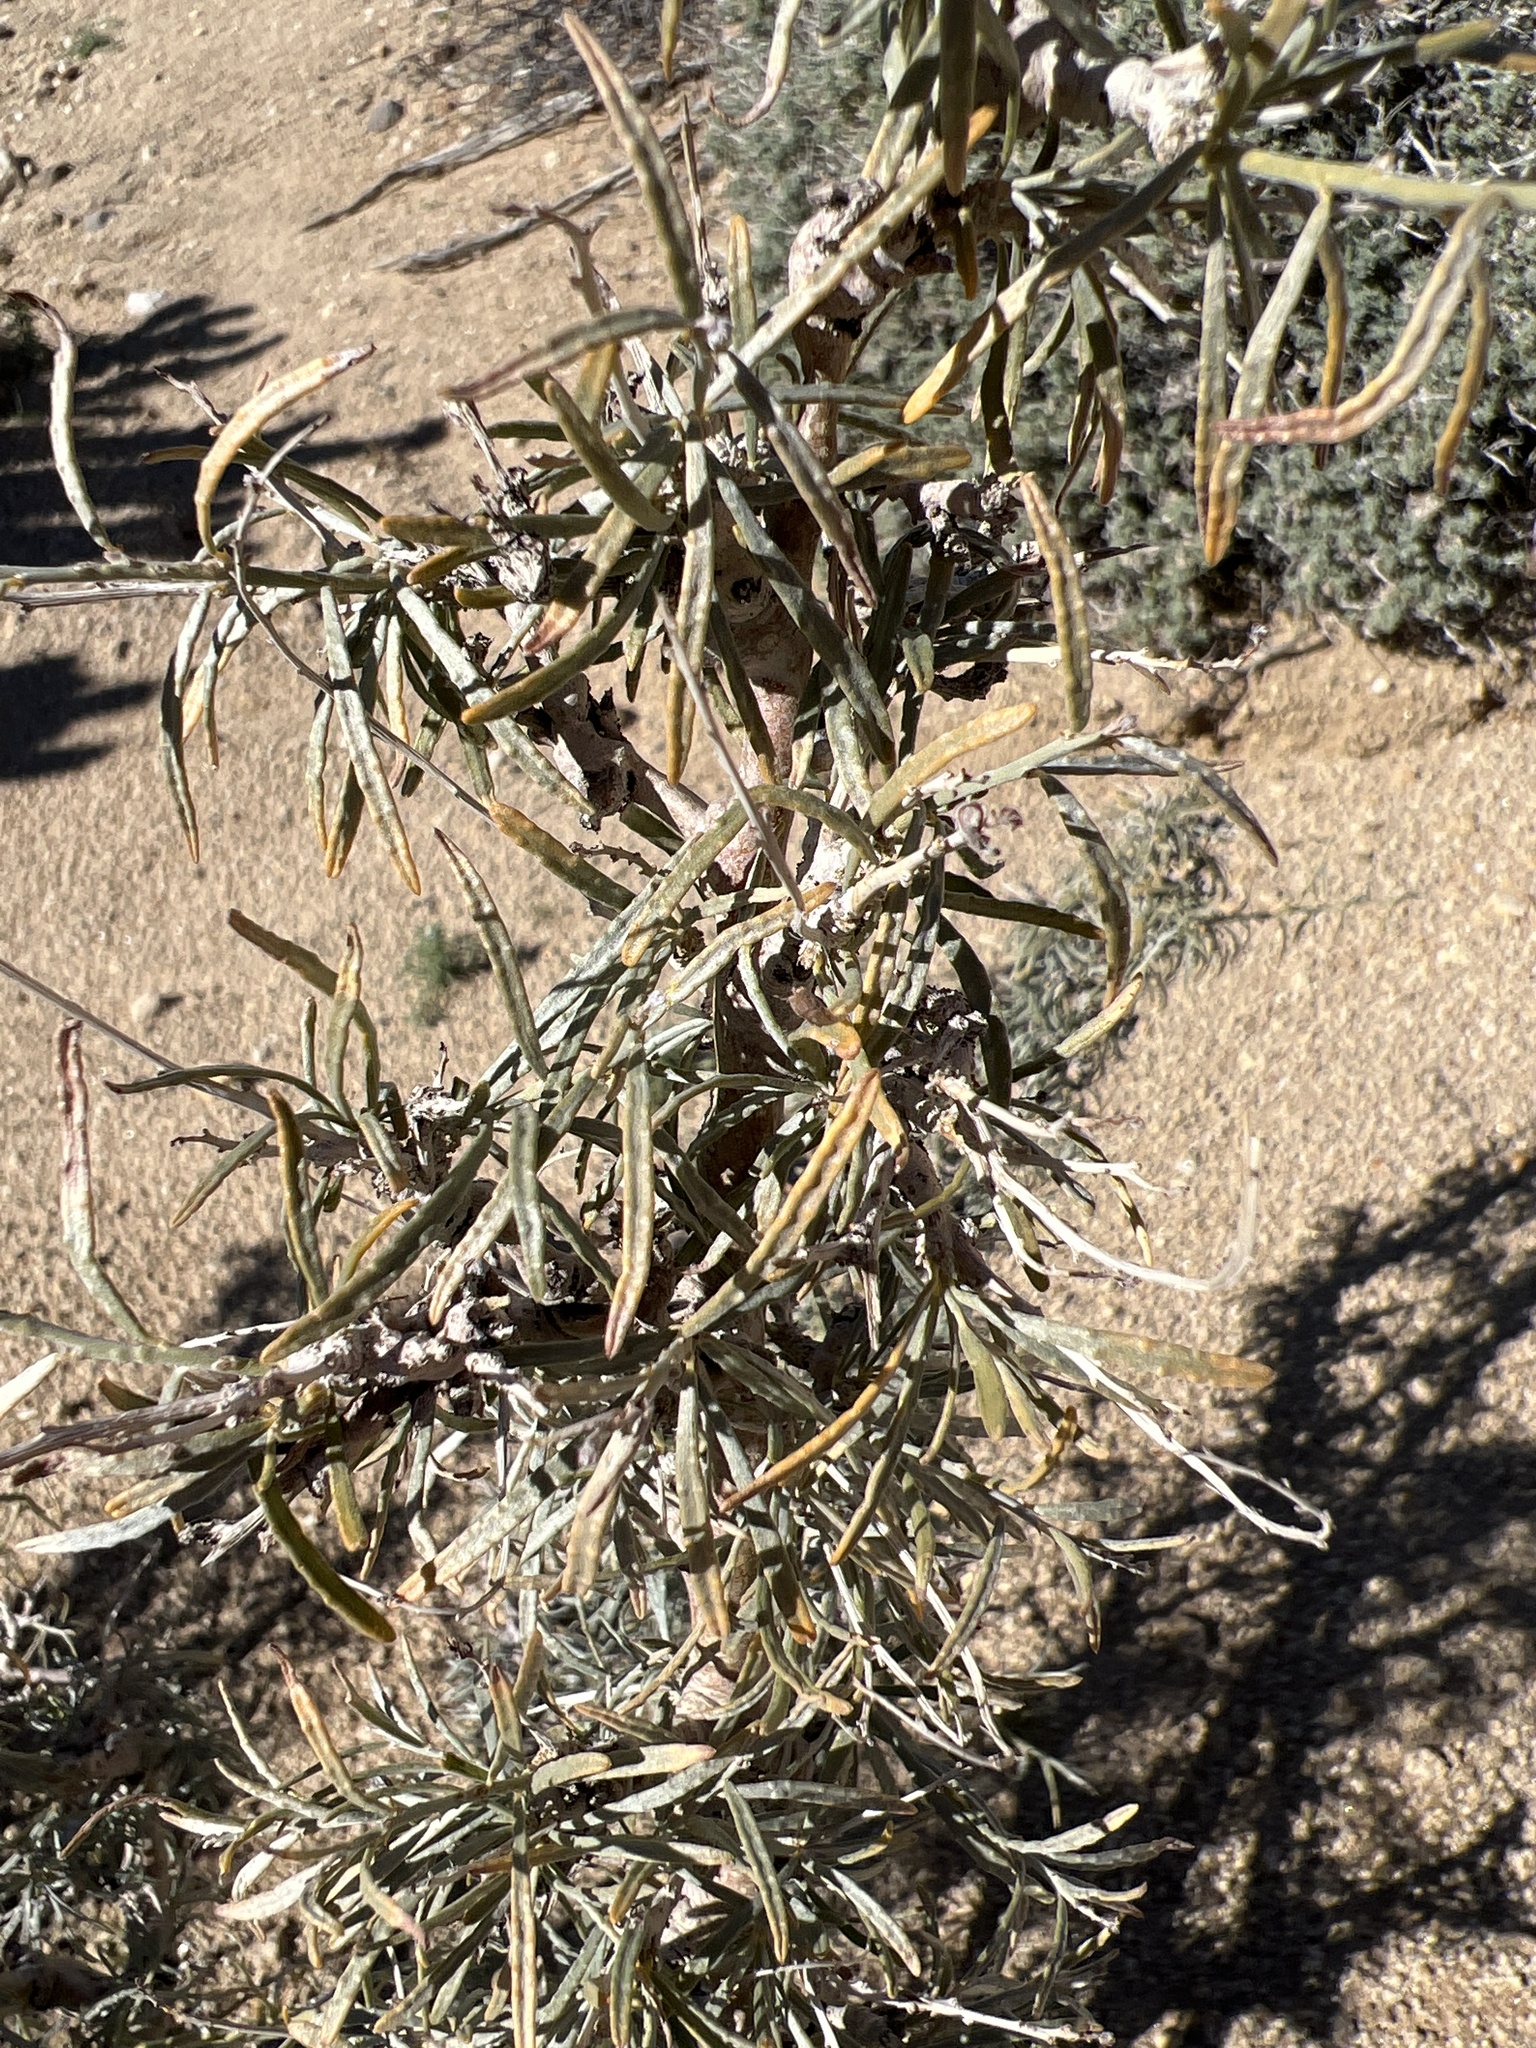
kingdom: Plantae
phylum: Tracheophyta
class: Magnoliopsida
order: Fabales
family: Fabaceae
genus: Psorothamnus
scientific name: Psorothamnus schottii
